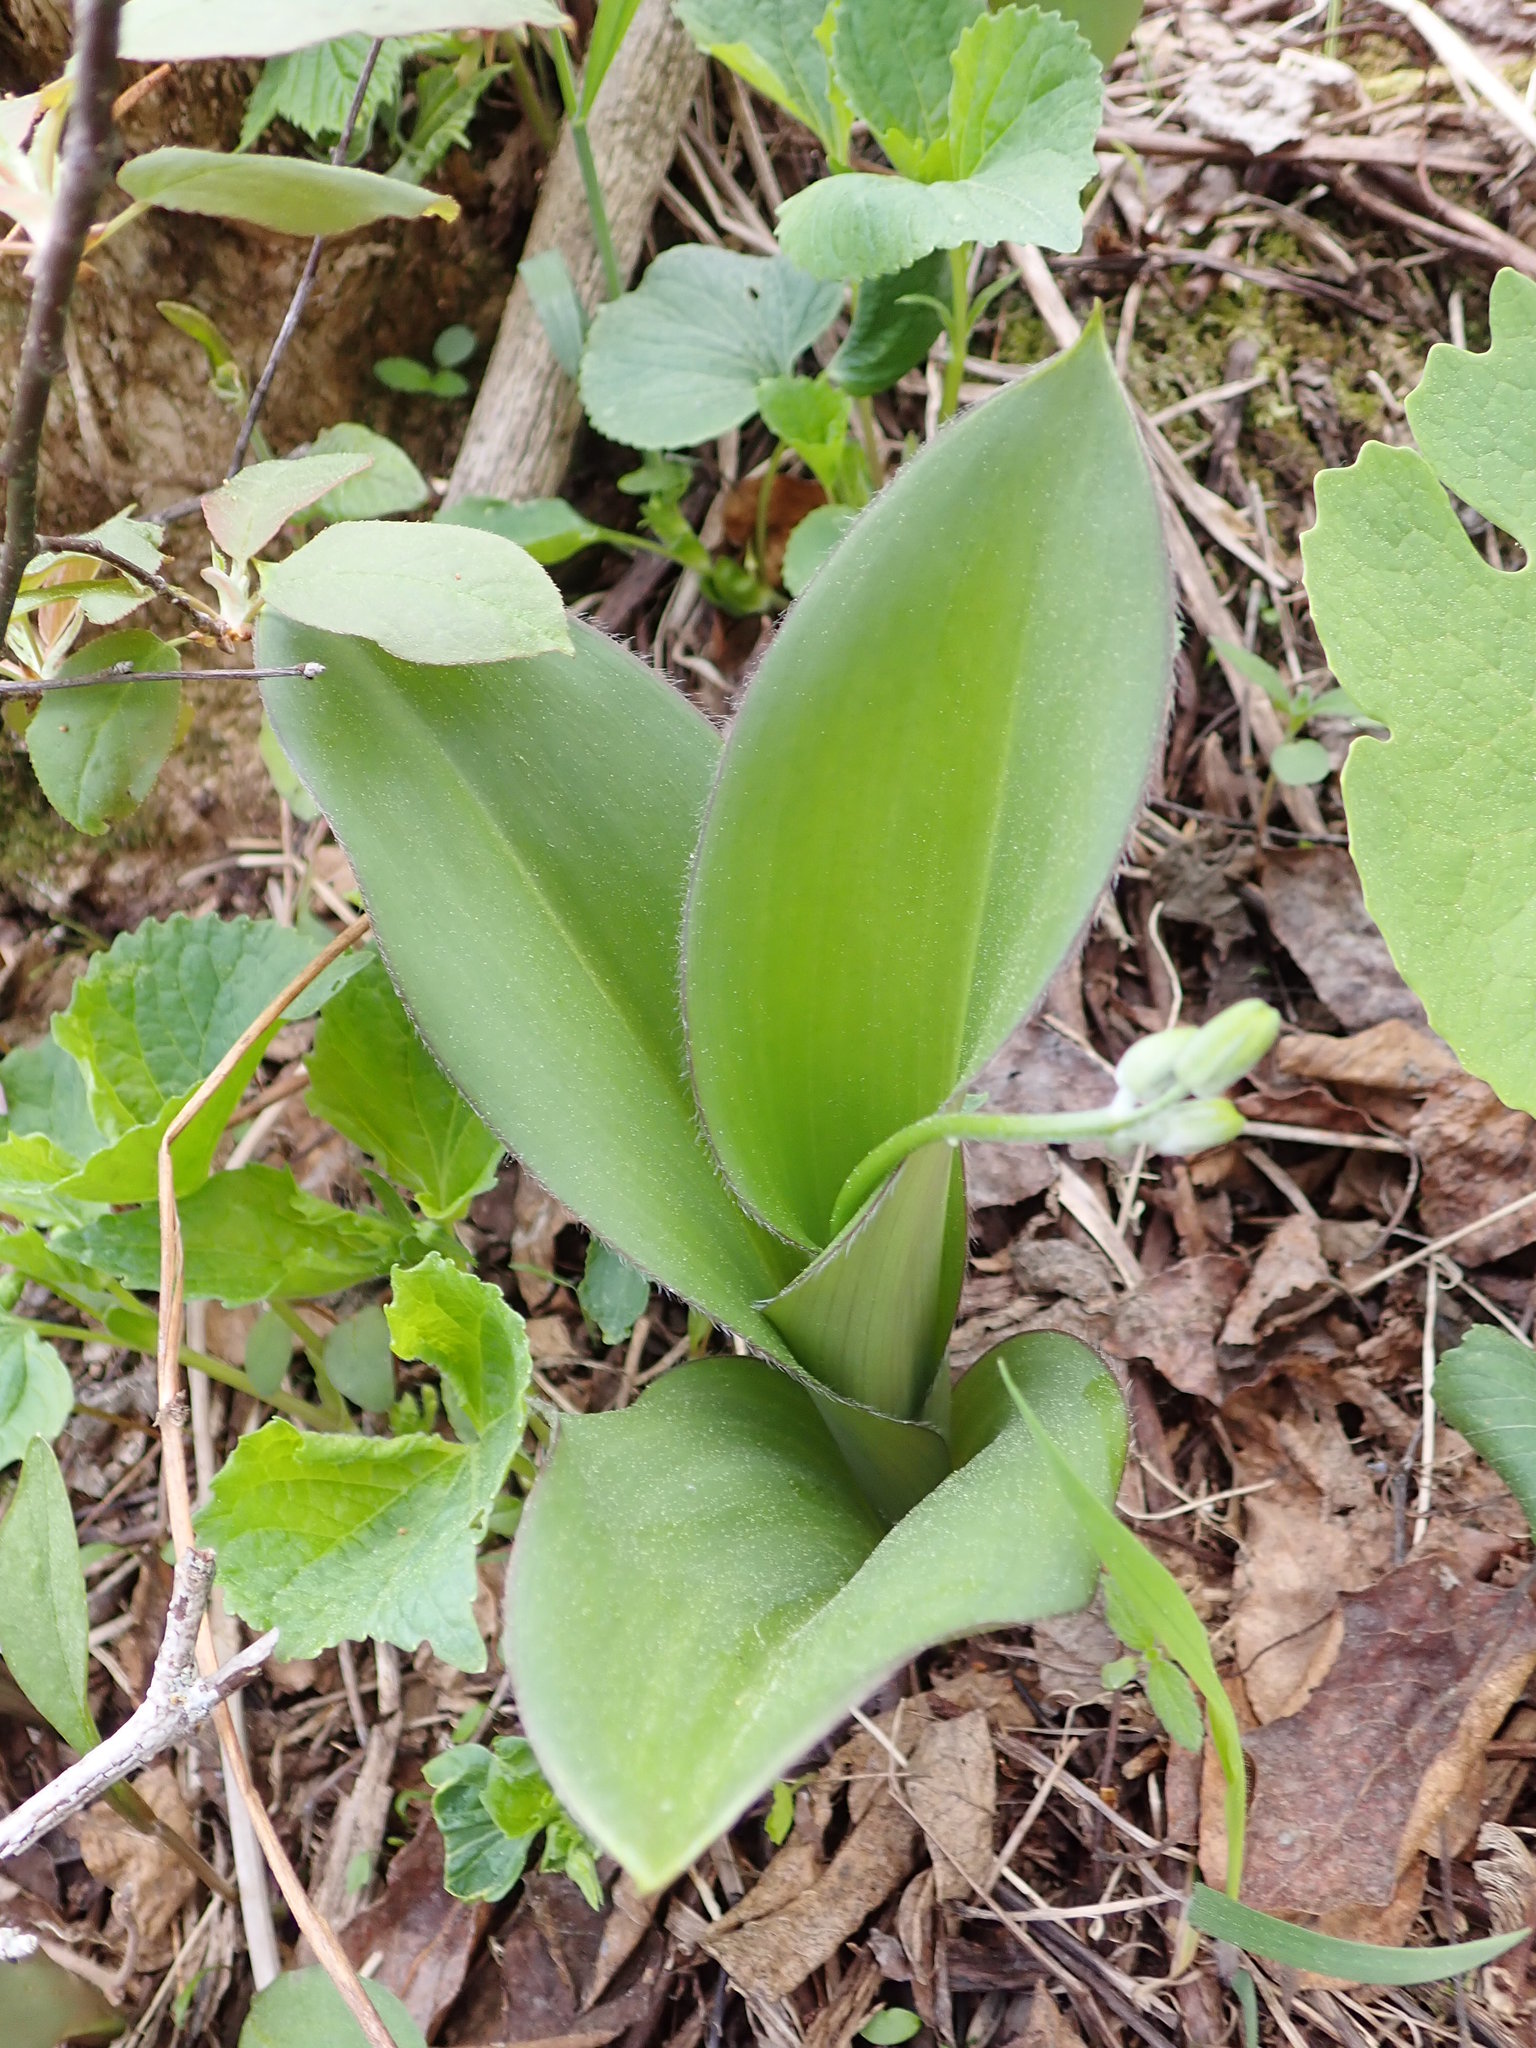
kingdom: Plantae
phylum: Tracheophyta
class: Liliopsida
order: Liliales
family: Liliaceae
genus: Clintonia
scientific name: Clintonia borealis
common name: Yellow clintonia
